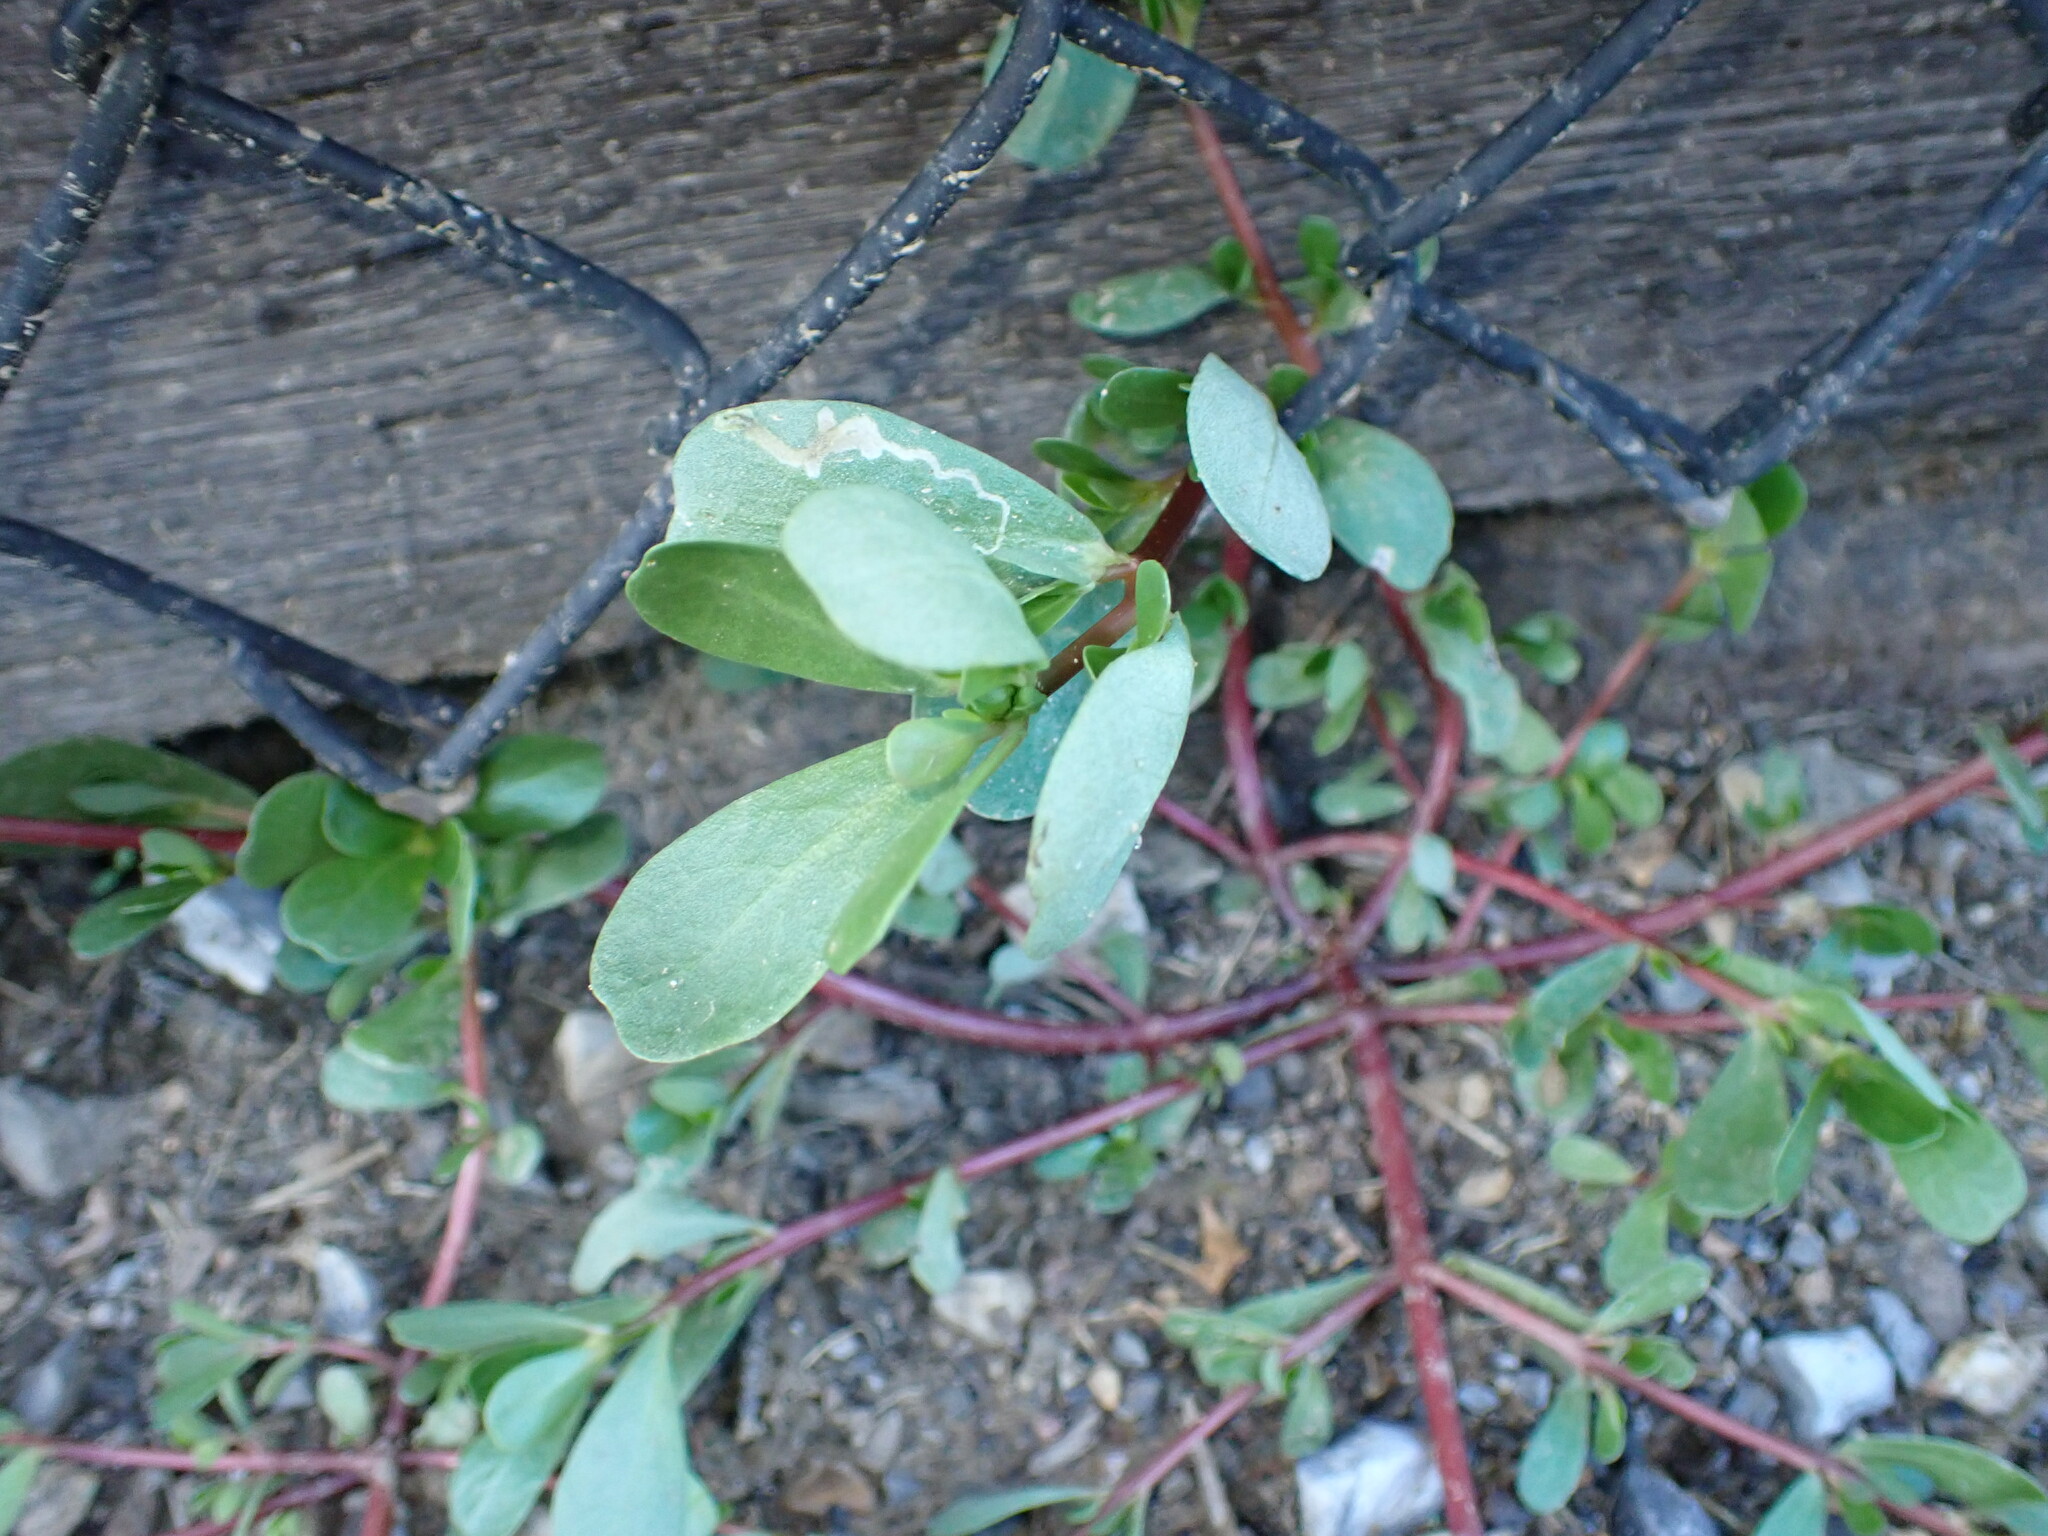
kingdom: Plantae
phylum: Tracheophyta
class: Magnoliopsida
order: Caryophyllales
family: Portulacaceae
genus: Portulaca
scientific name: Portulaca oleracea
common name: Common purslane
